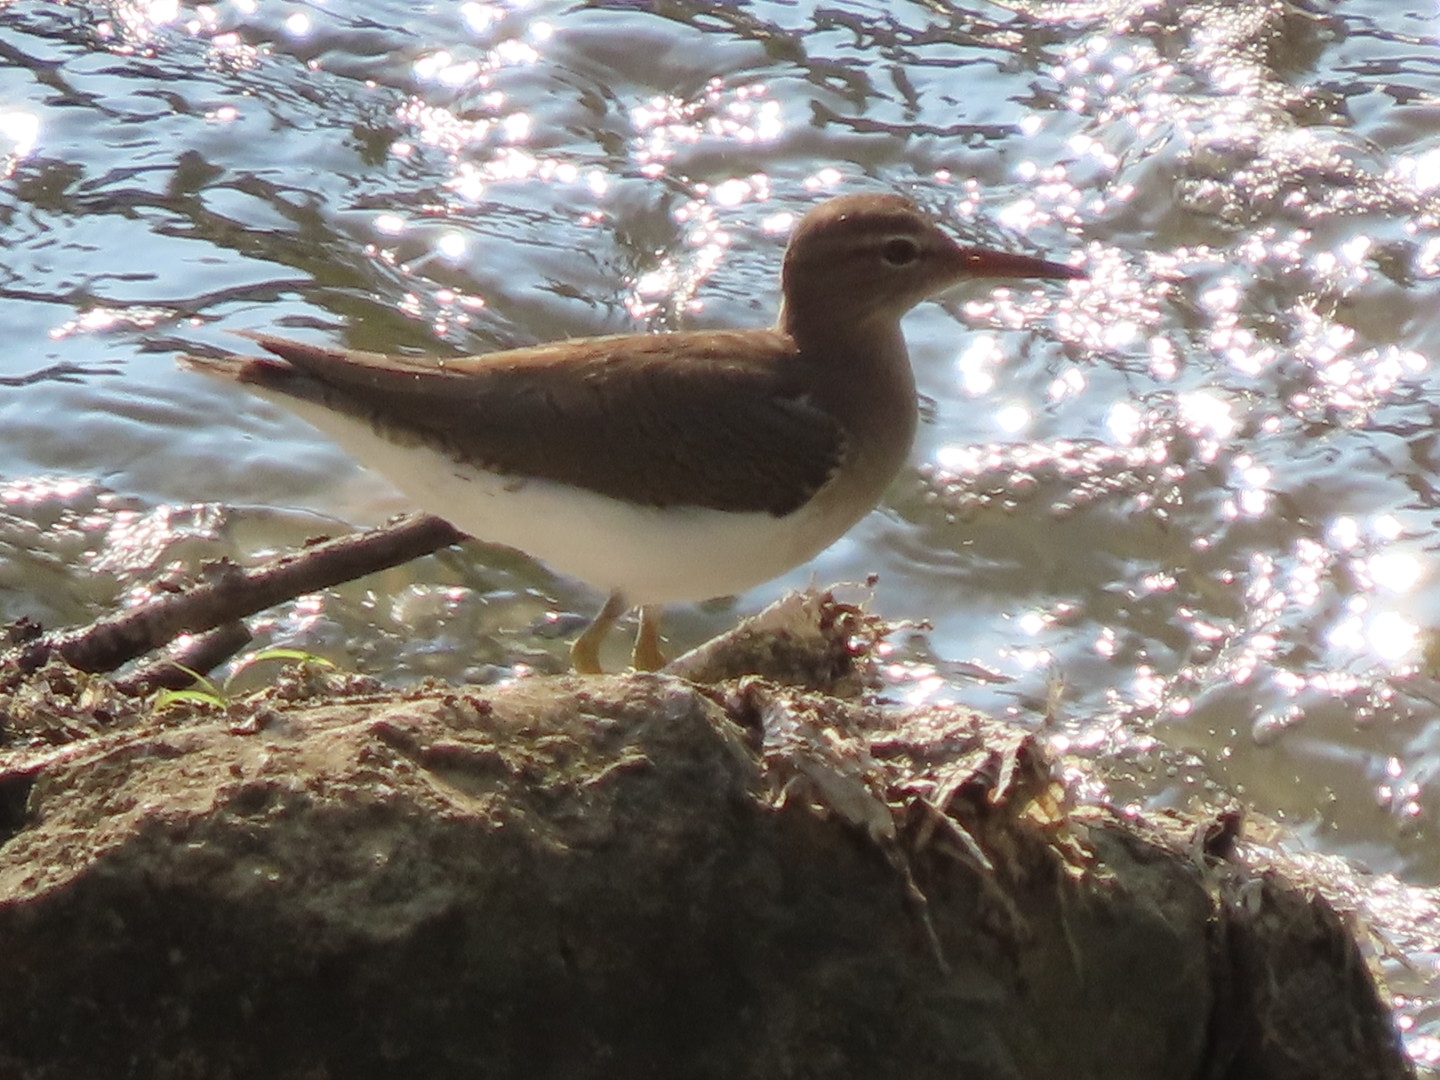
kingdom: Animalia
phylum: Chordata
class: Aves
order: Charadriiformes
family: Scolopacidae
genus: Actitis
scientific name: Actitis macularius
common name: Spotted sandpiper
